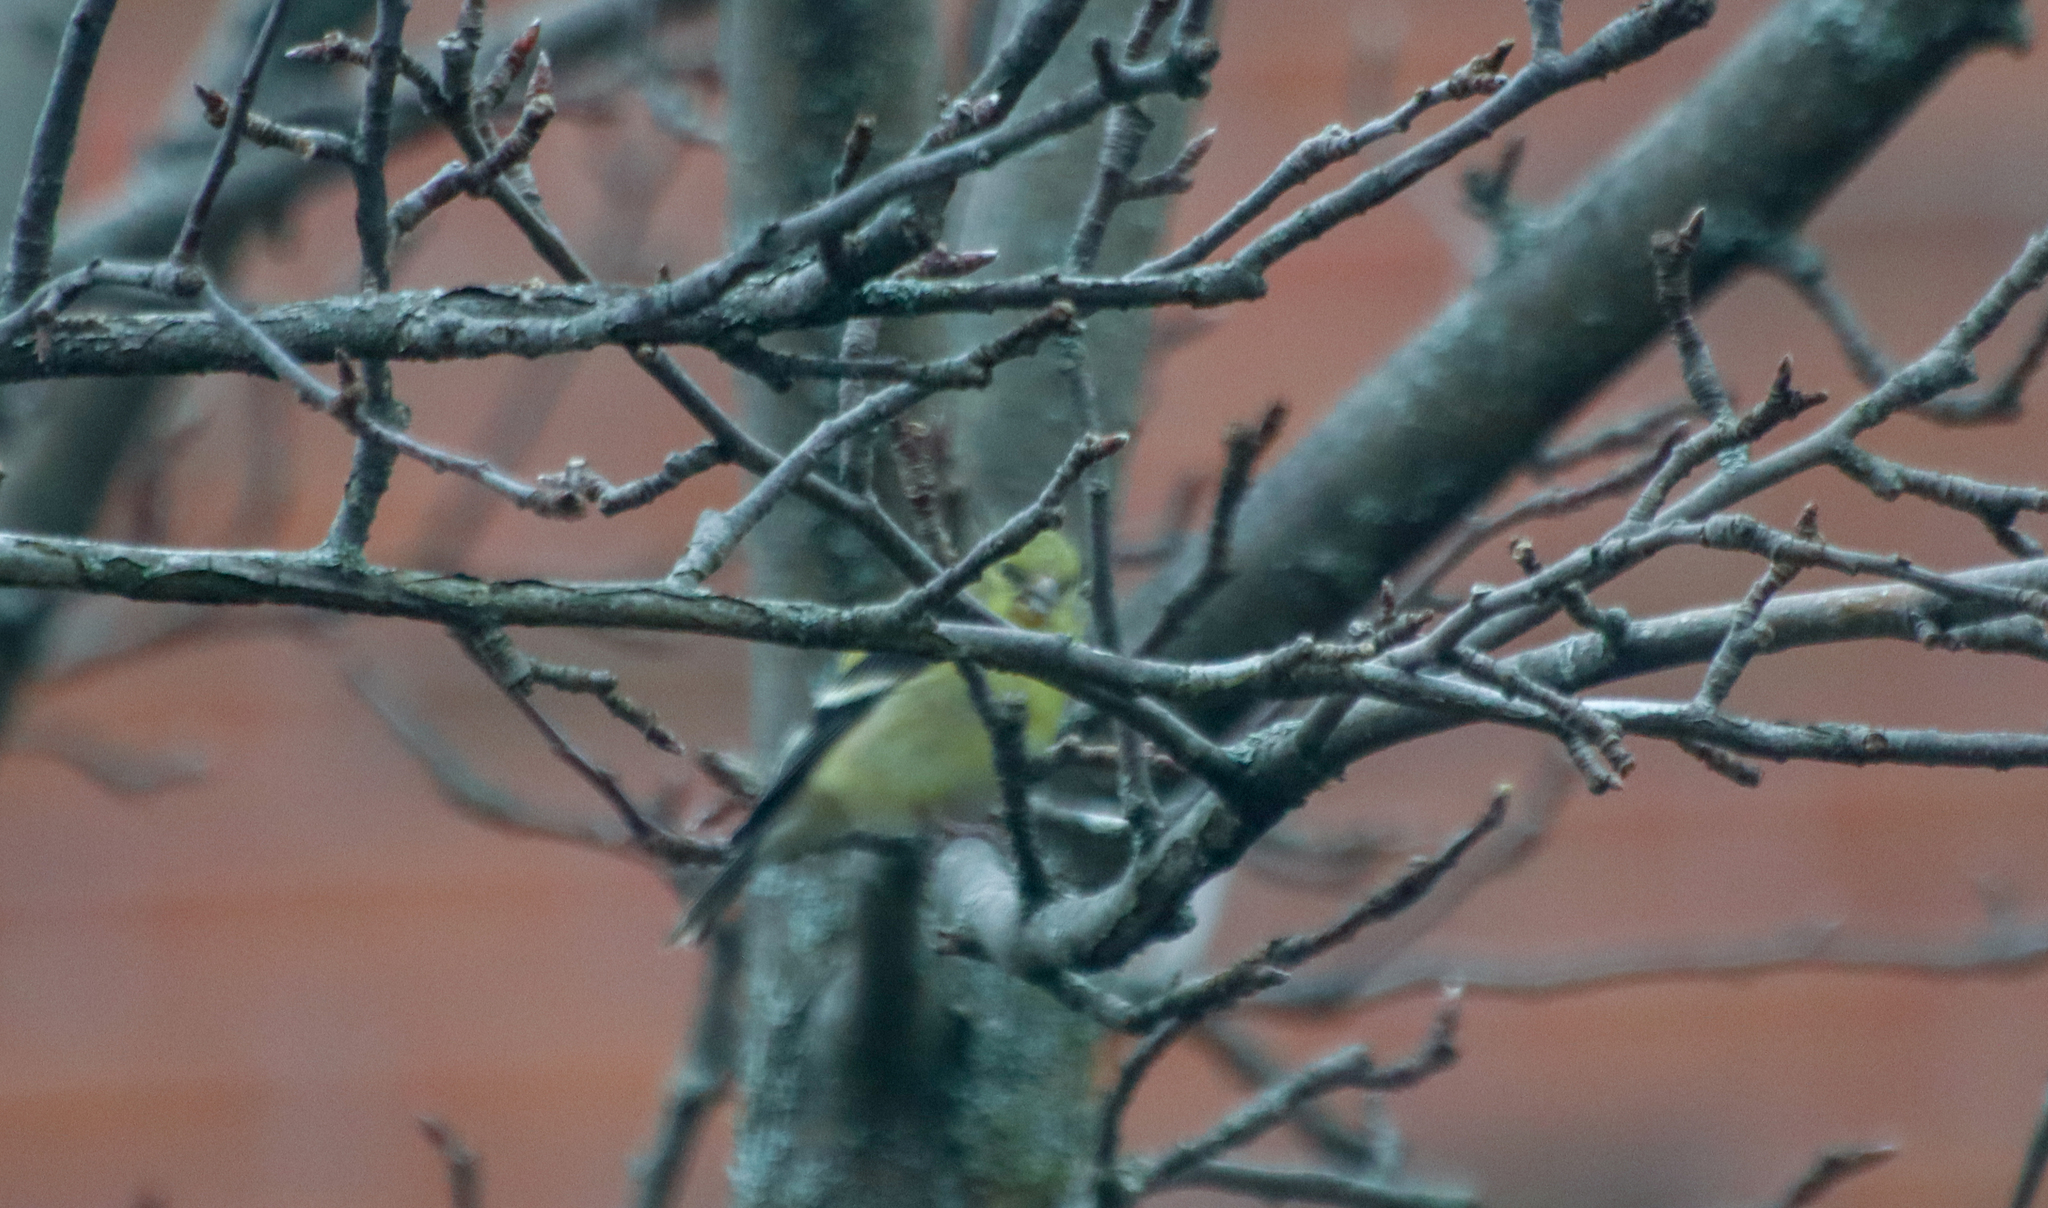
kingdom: Animalia
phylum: Chordata
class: Aves
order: Passeriformes
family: Fringillidae
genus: Spinus
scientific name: Spinus tristis
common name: American goldfinch
